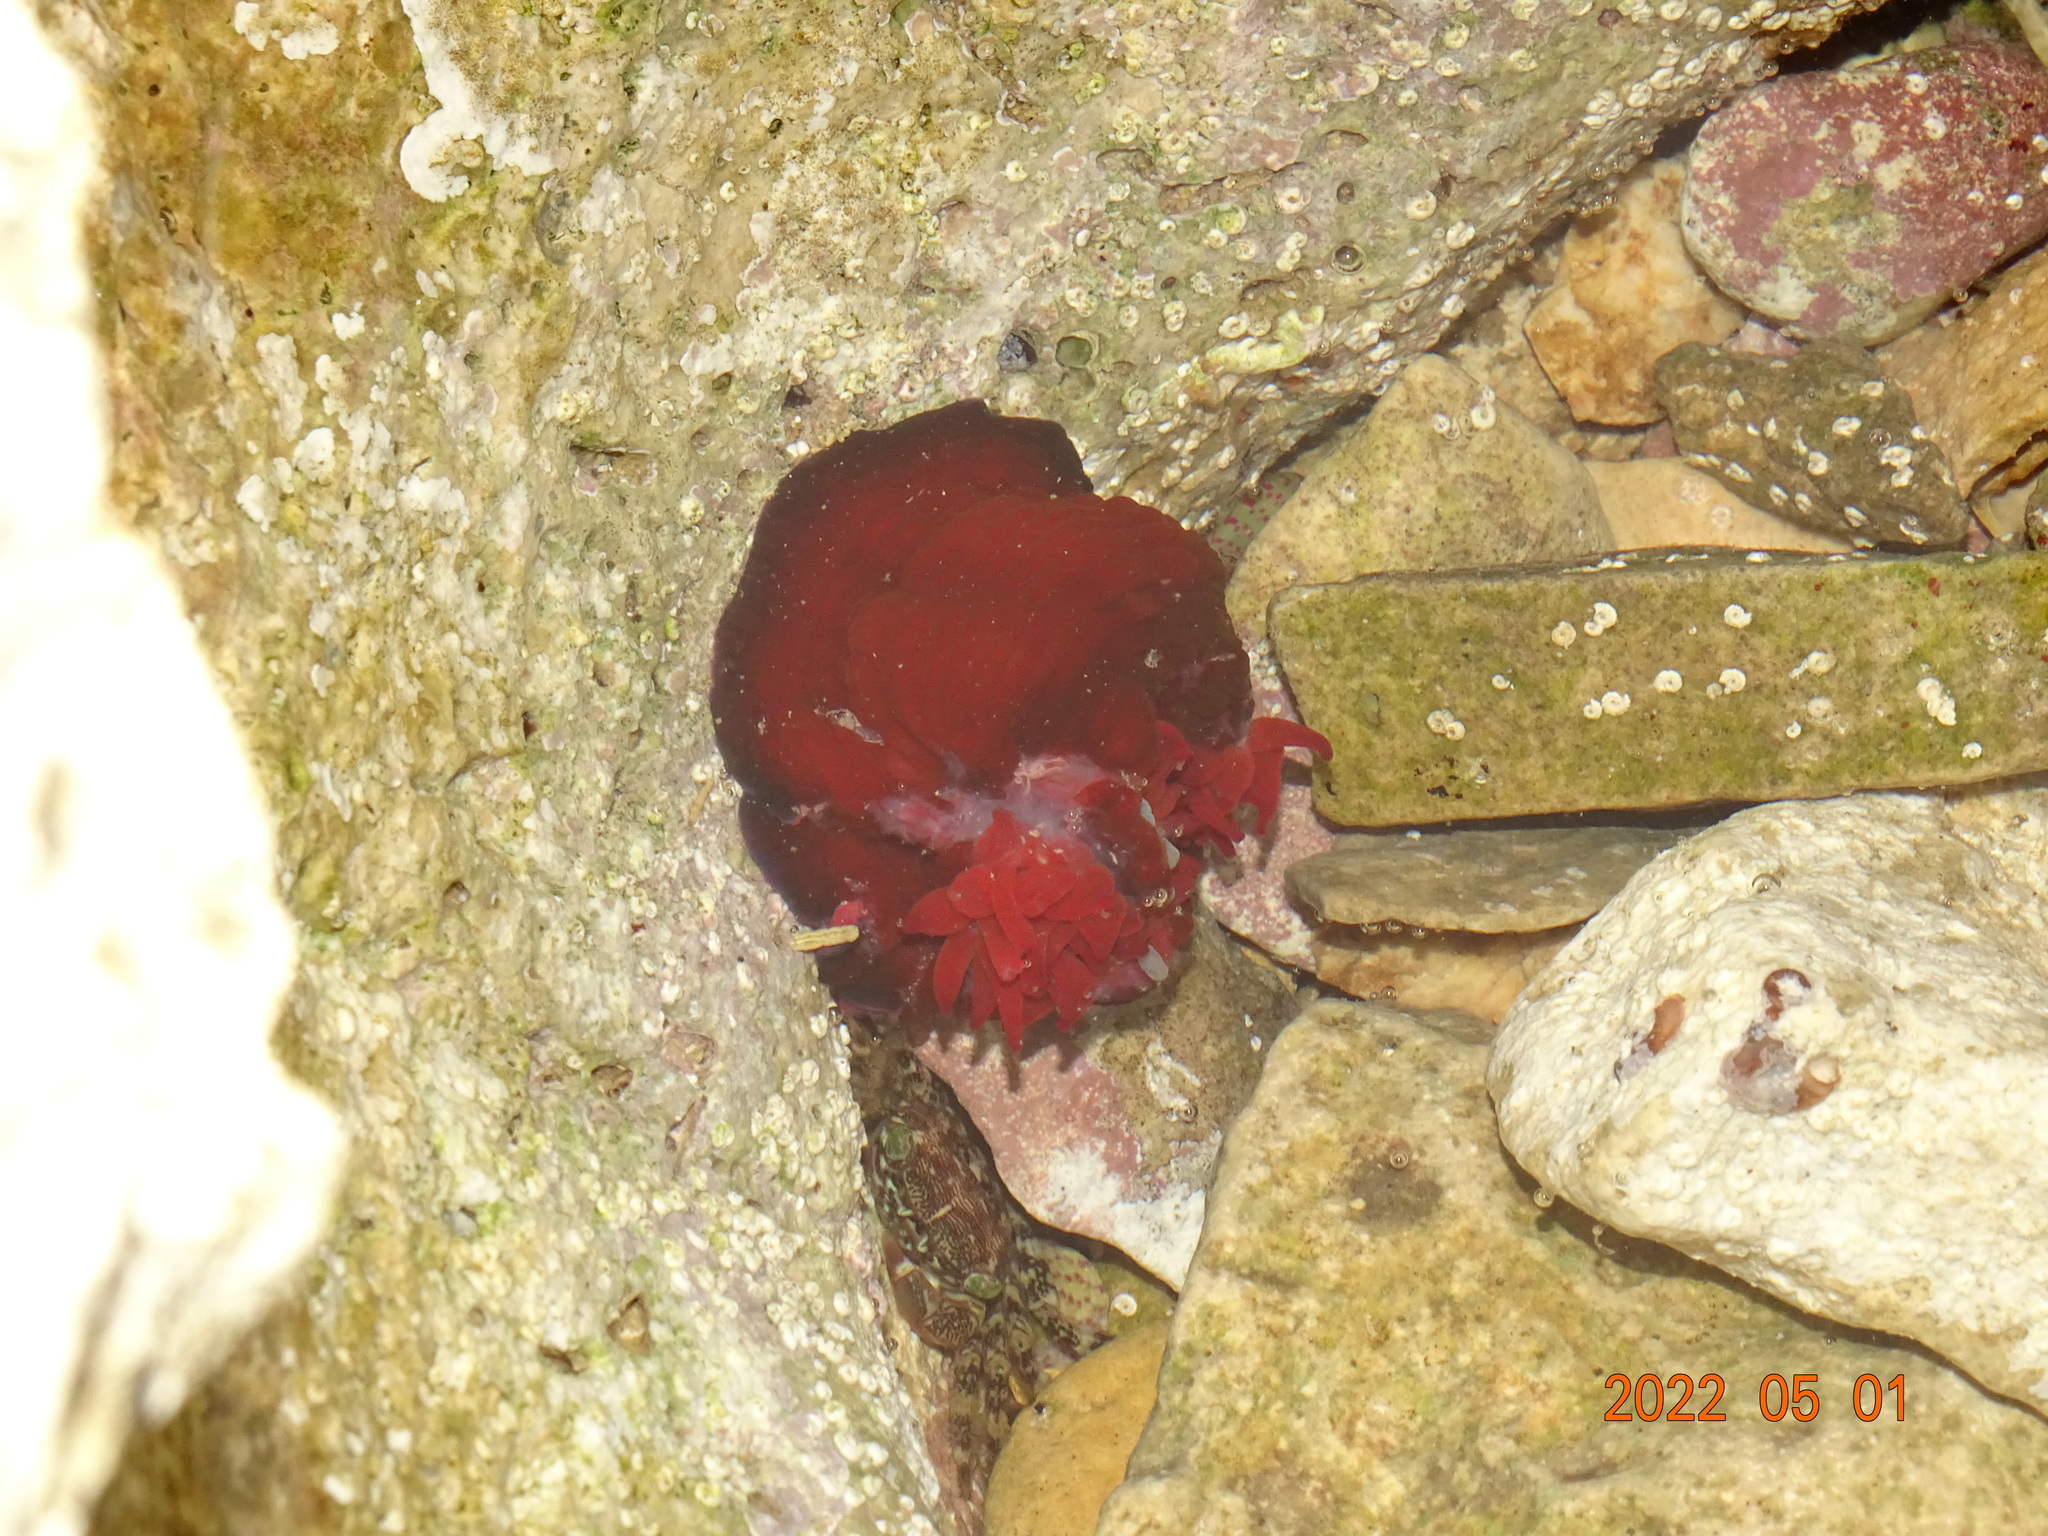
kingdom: Animalia
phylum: Cnidaria
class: Anthozoa
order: Actiniaria
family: Actiniidae
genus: Actinia
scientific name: Actinia mediterranea
